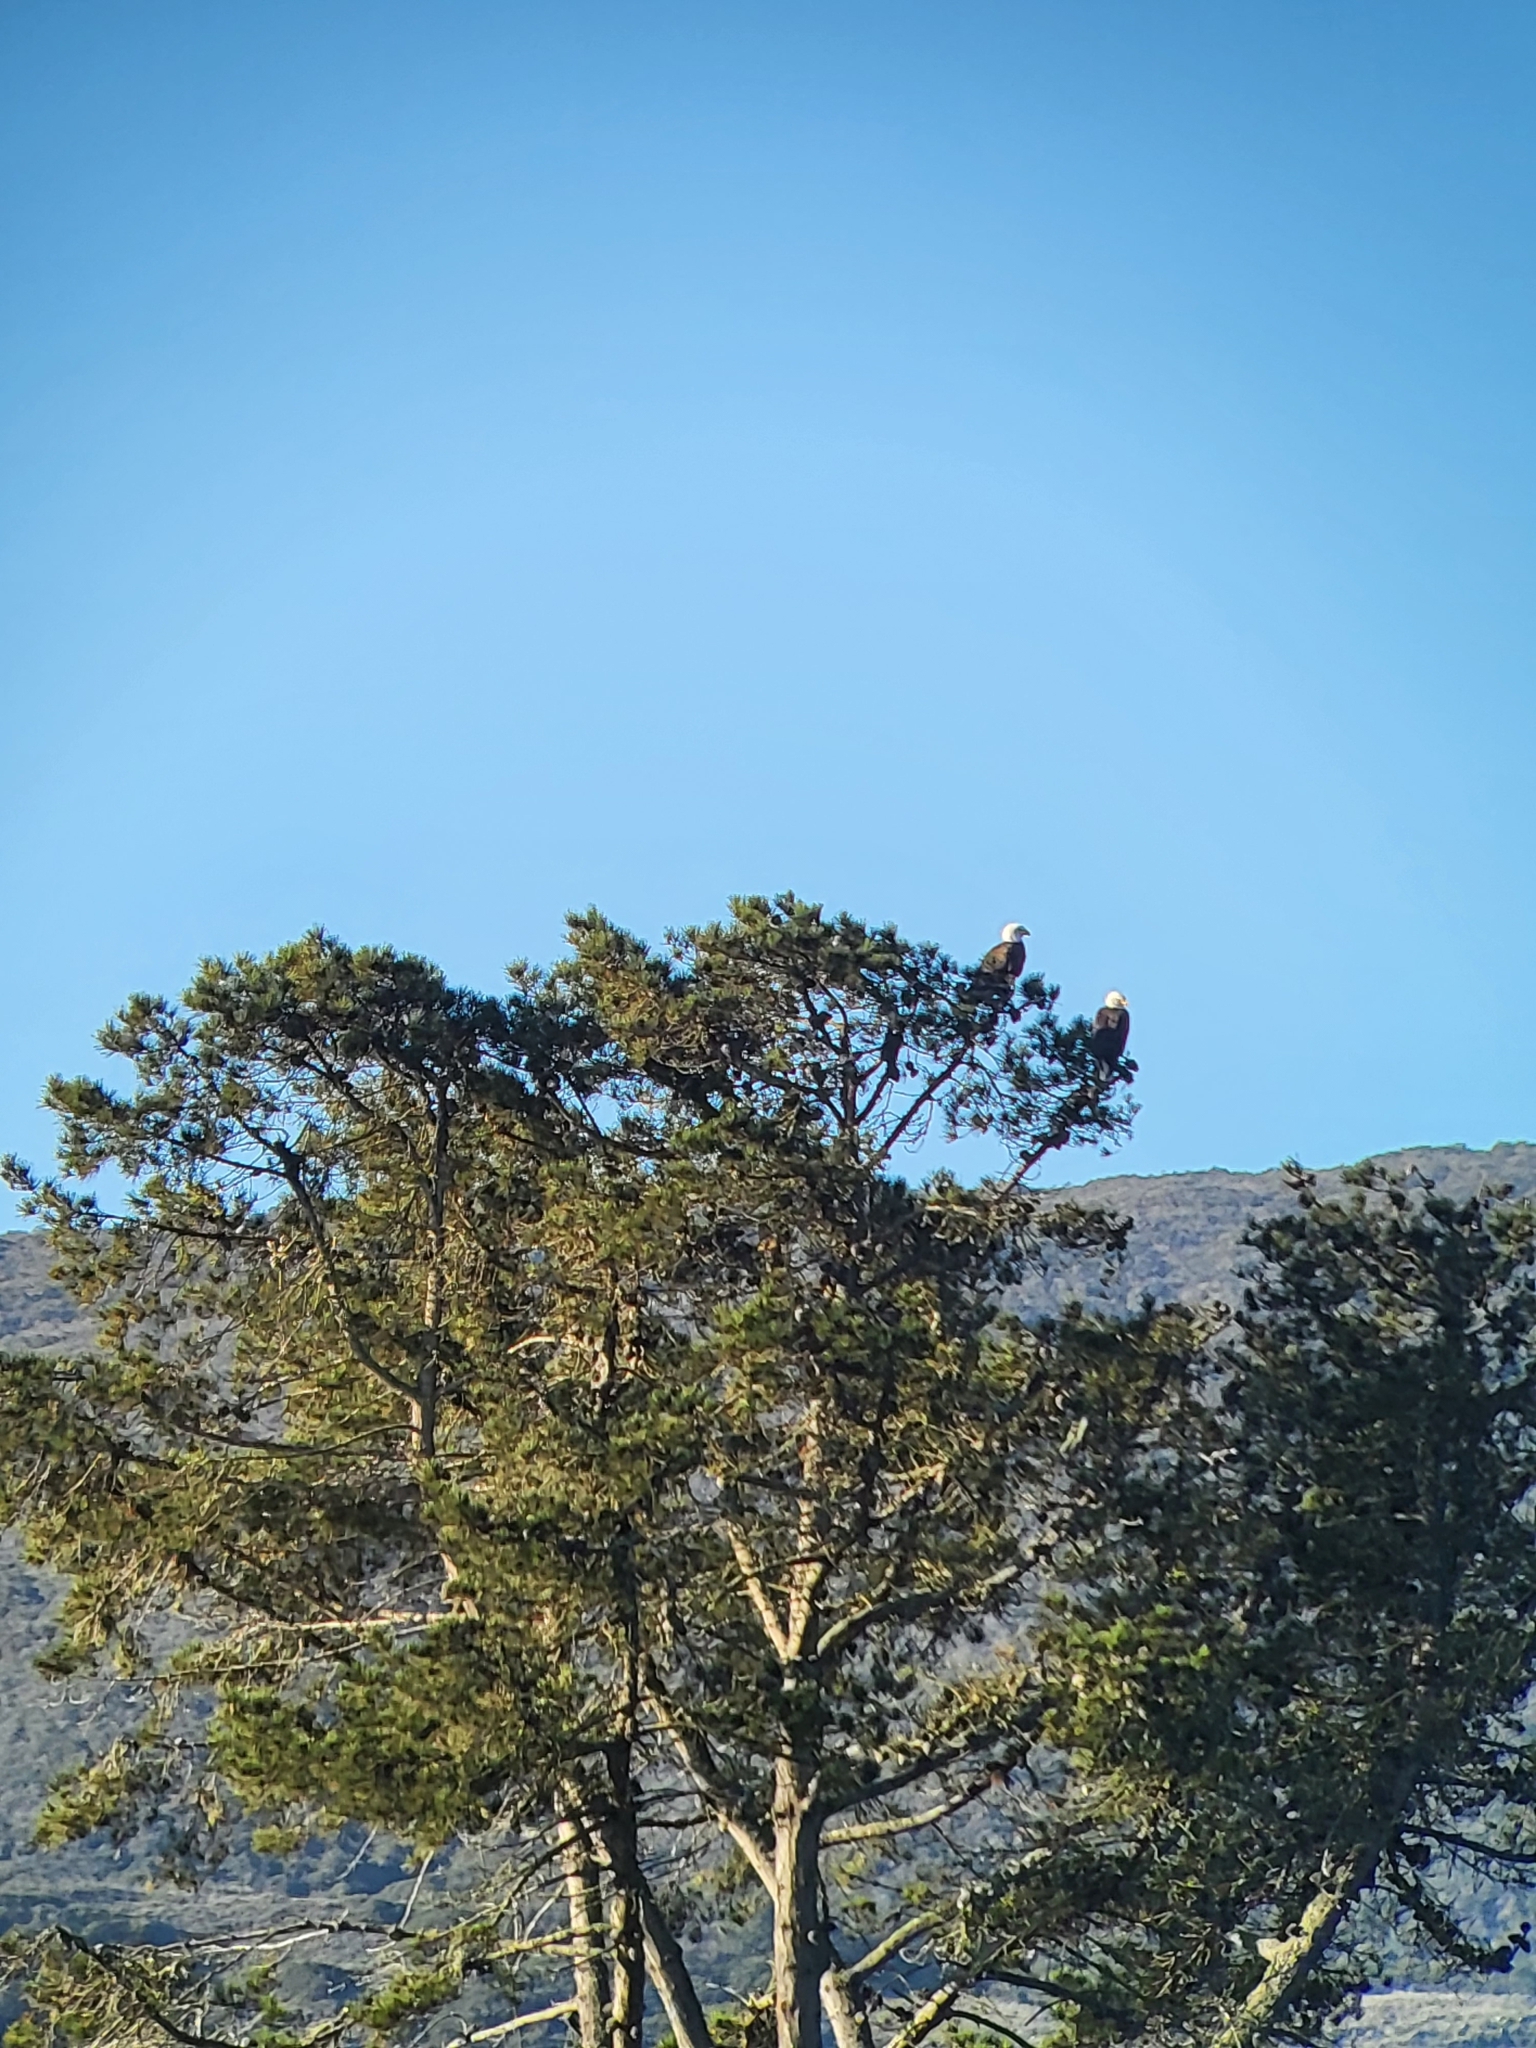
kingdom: Animalia
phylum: Chordata
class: Aves
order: Accipitriformes
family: Accipitridae
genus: Haliaeetus
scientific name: Haliaeetus leucocephalus
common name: Bald eagle
